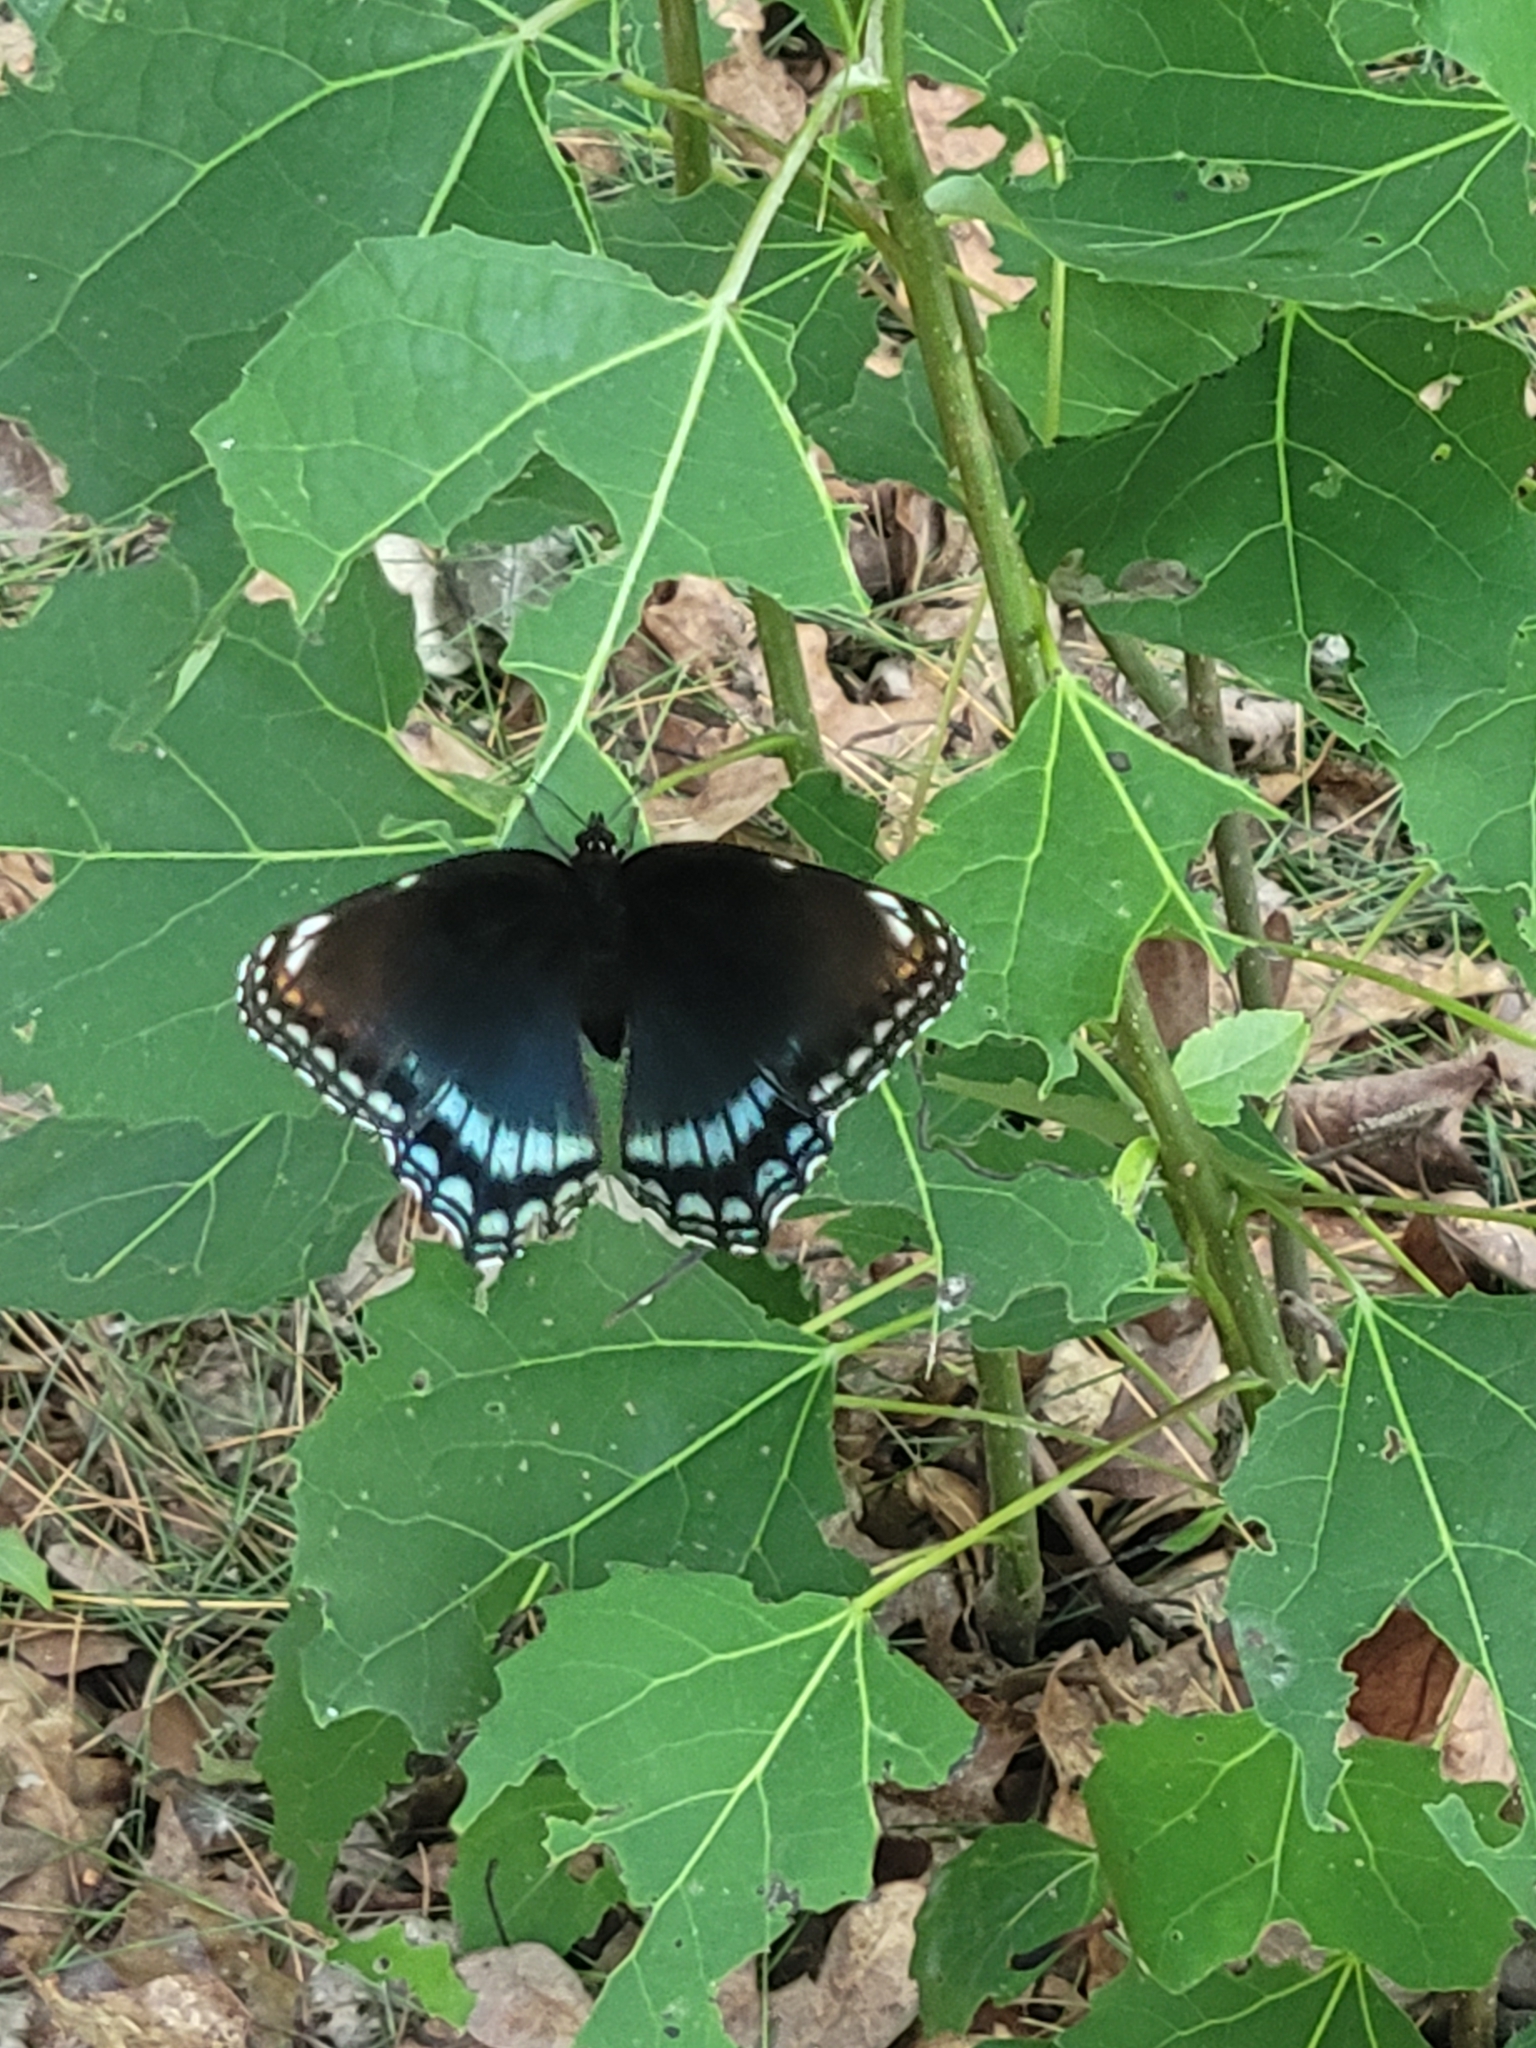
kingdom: Animalia
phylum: Arthropoda
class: Insecta
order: Lepidoptera
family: Nymphalidae
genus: Limenitis
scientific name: Limenitis astyanax
